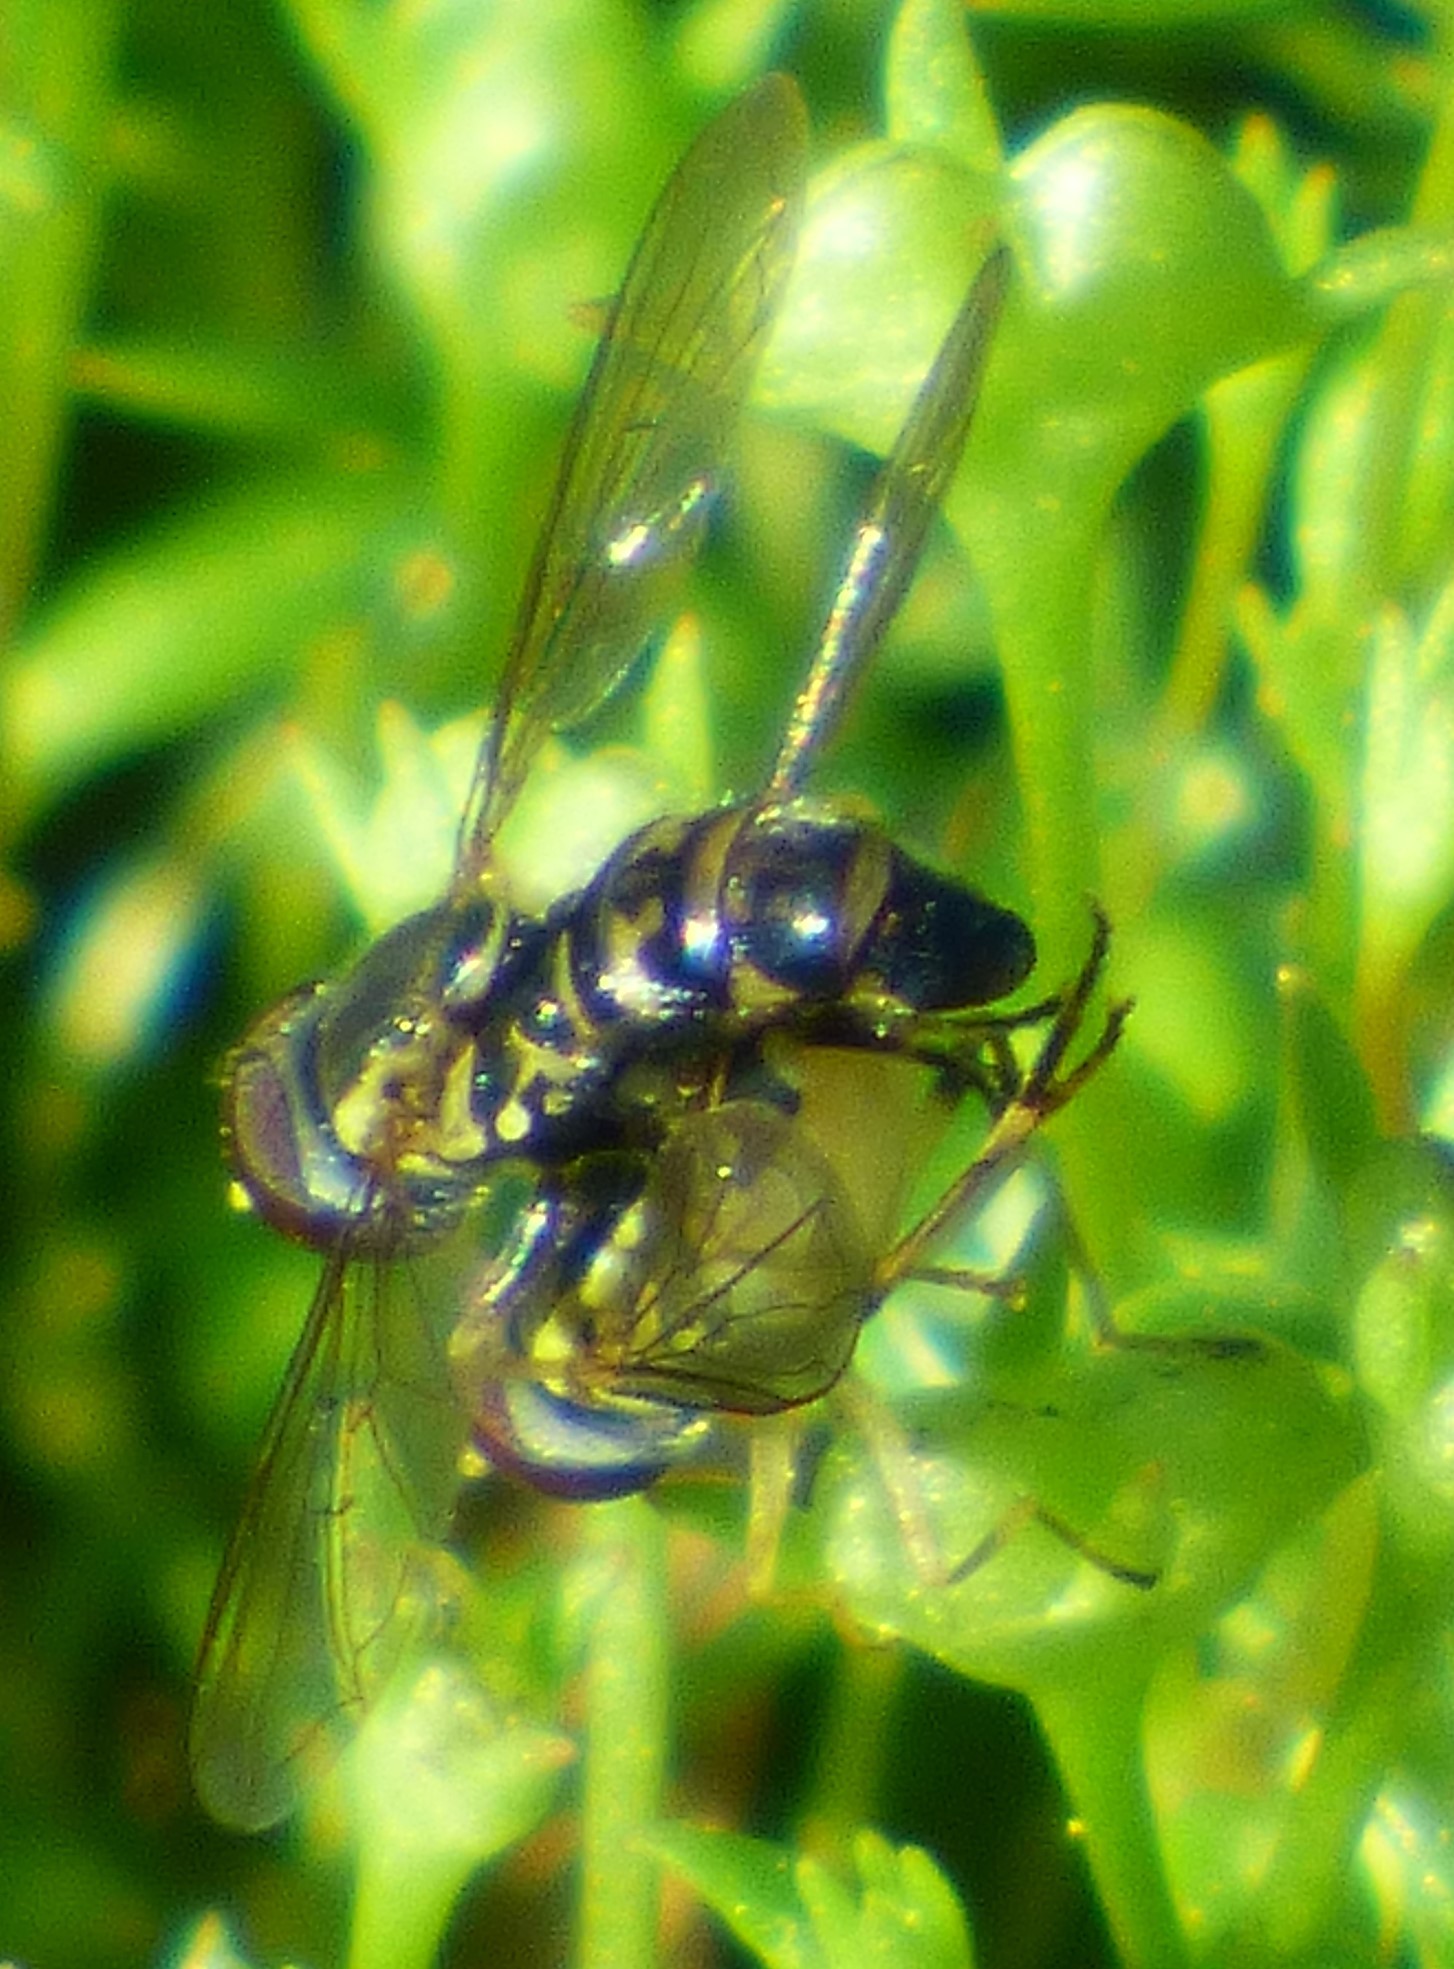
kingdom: Animalia
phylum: Arthropoda
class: Insecta
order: Diptera
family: Syrphidae
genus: Toxomerus
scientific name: Toxomerus geminatus
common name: Eastern calligrapher
